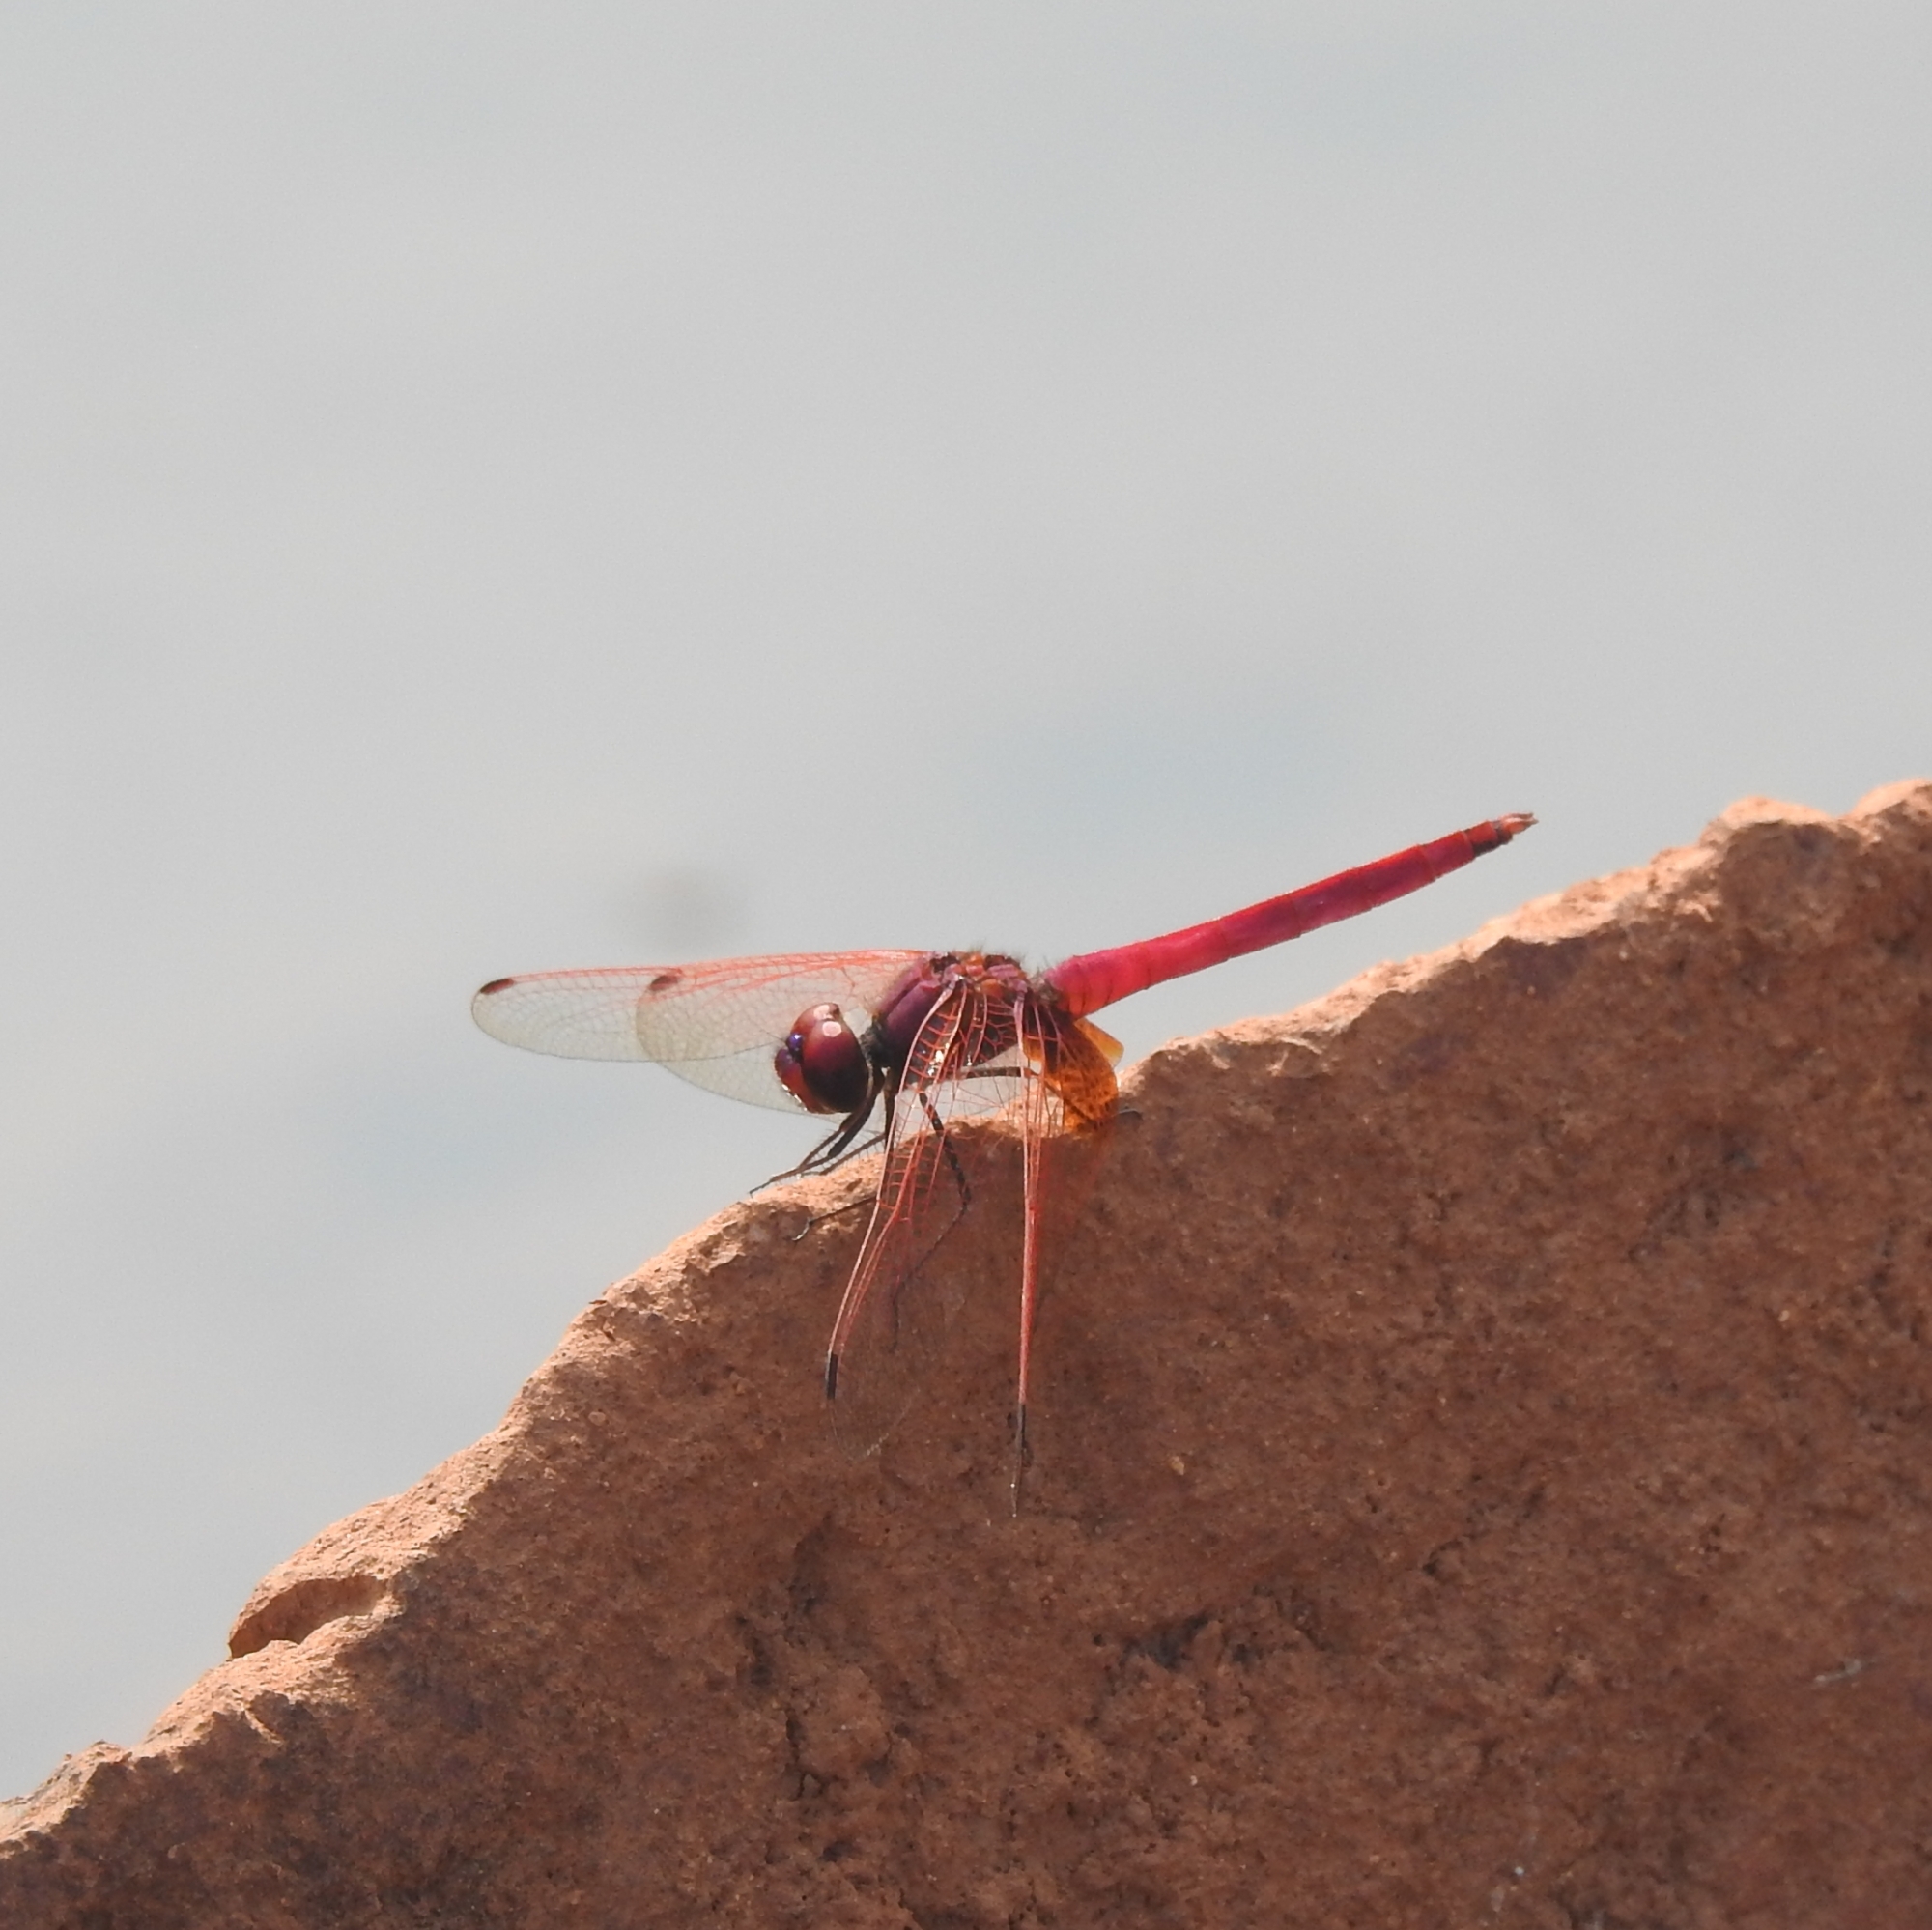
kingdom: Animalia
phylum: Arthropoda
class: Insecta
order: Odonata
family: Libellulidae
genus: Trithemis
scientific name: Trithemis aurora
